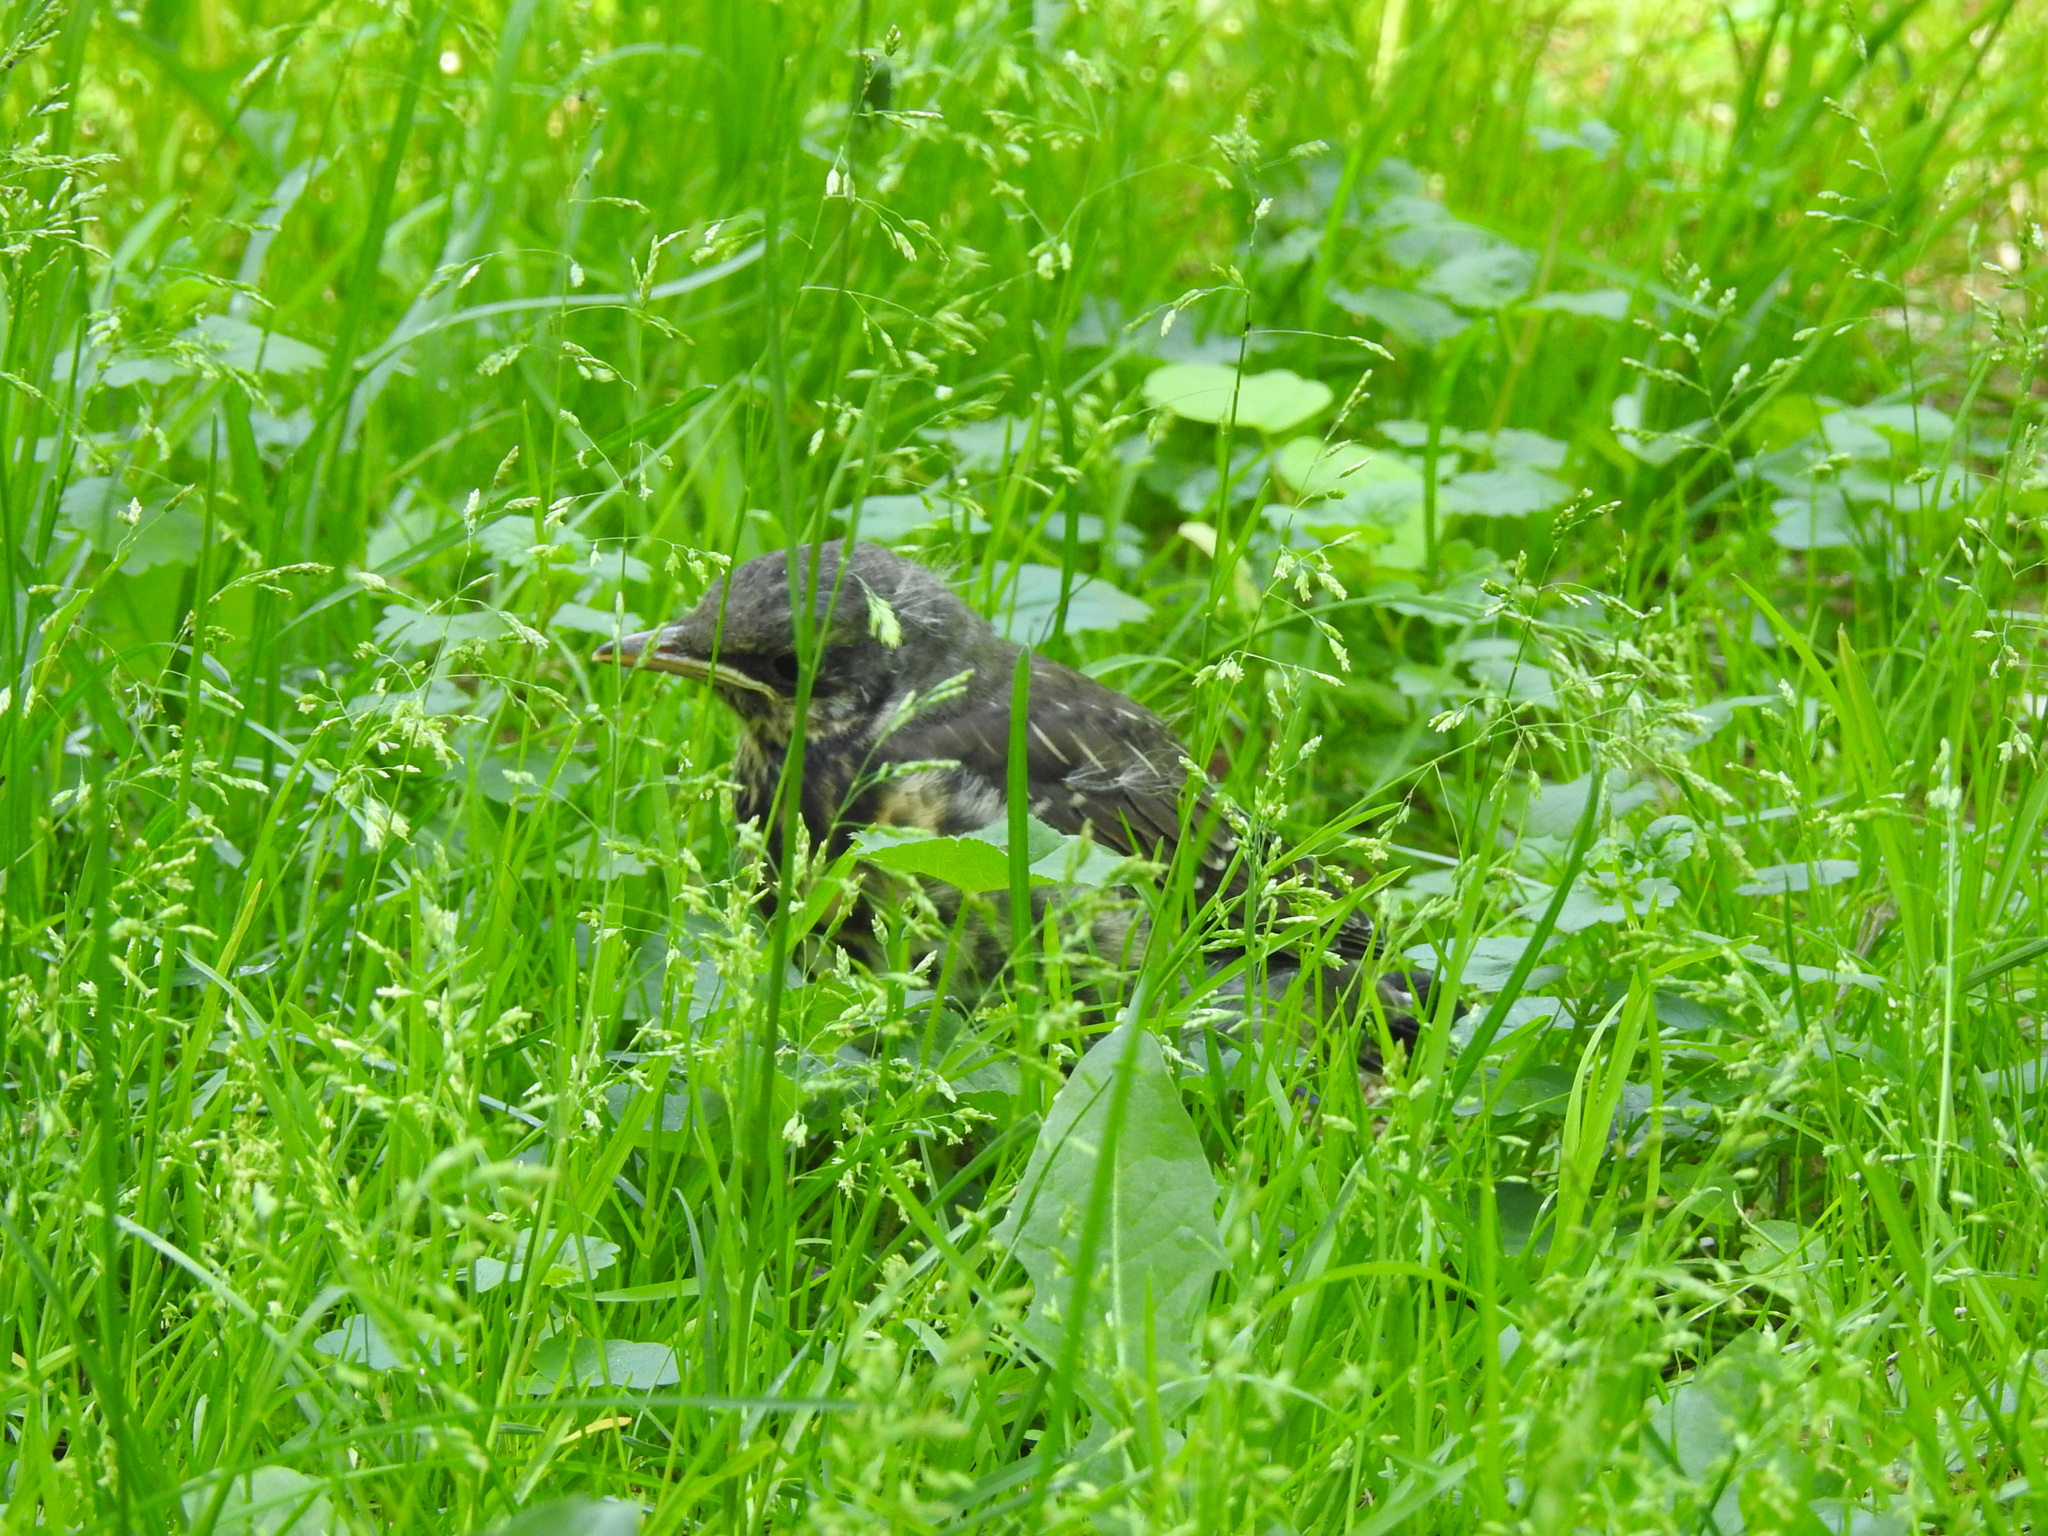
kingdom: Animalia
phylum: Chordata
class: Aves
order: Passeriformes
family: Turdidae
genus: Turdus
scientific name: Turdus pilaris
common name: Fieldfare
